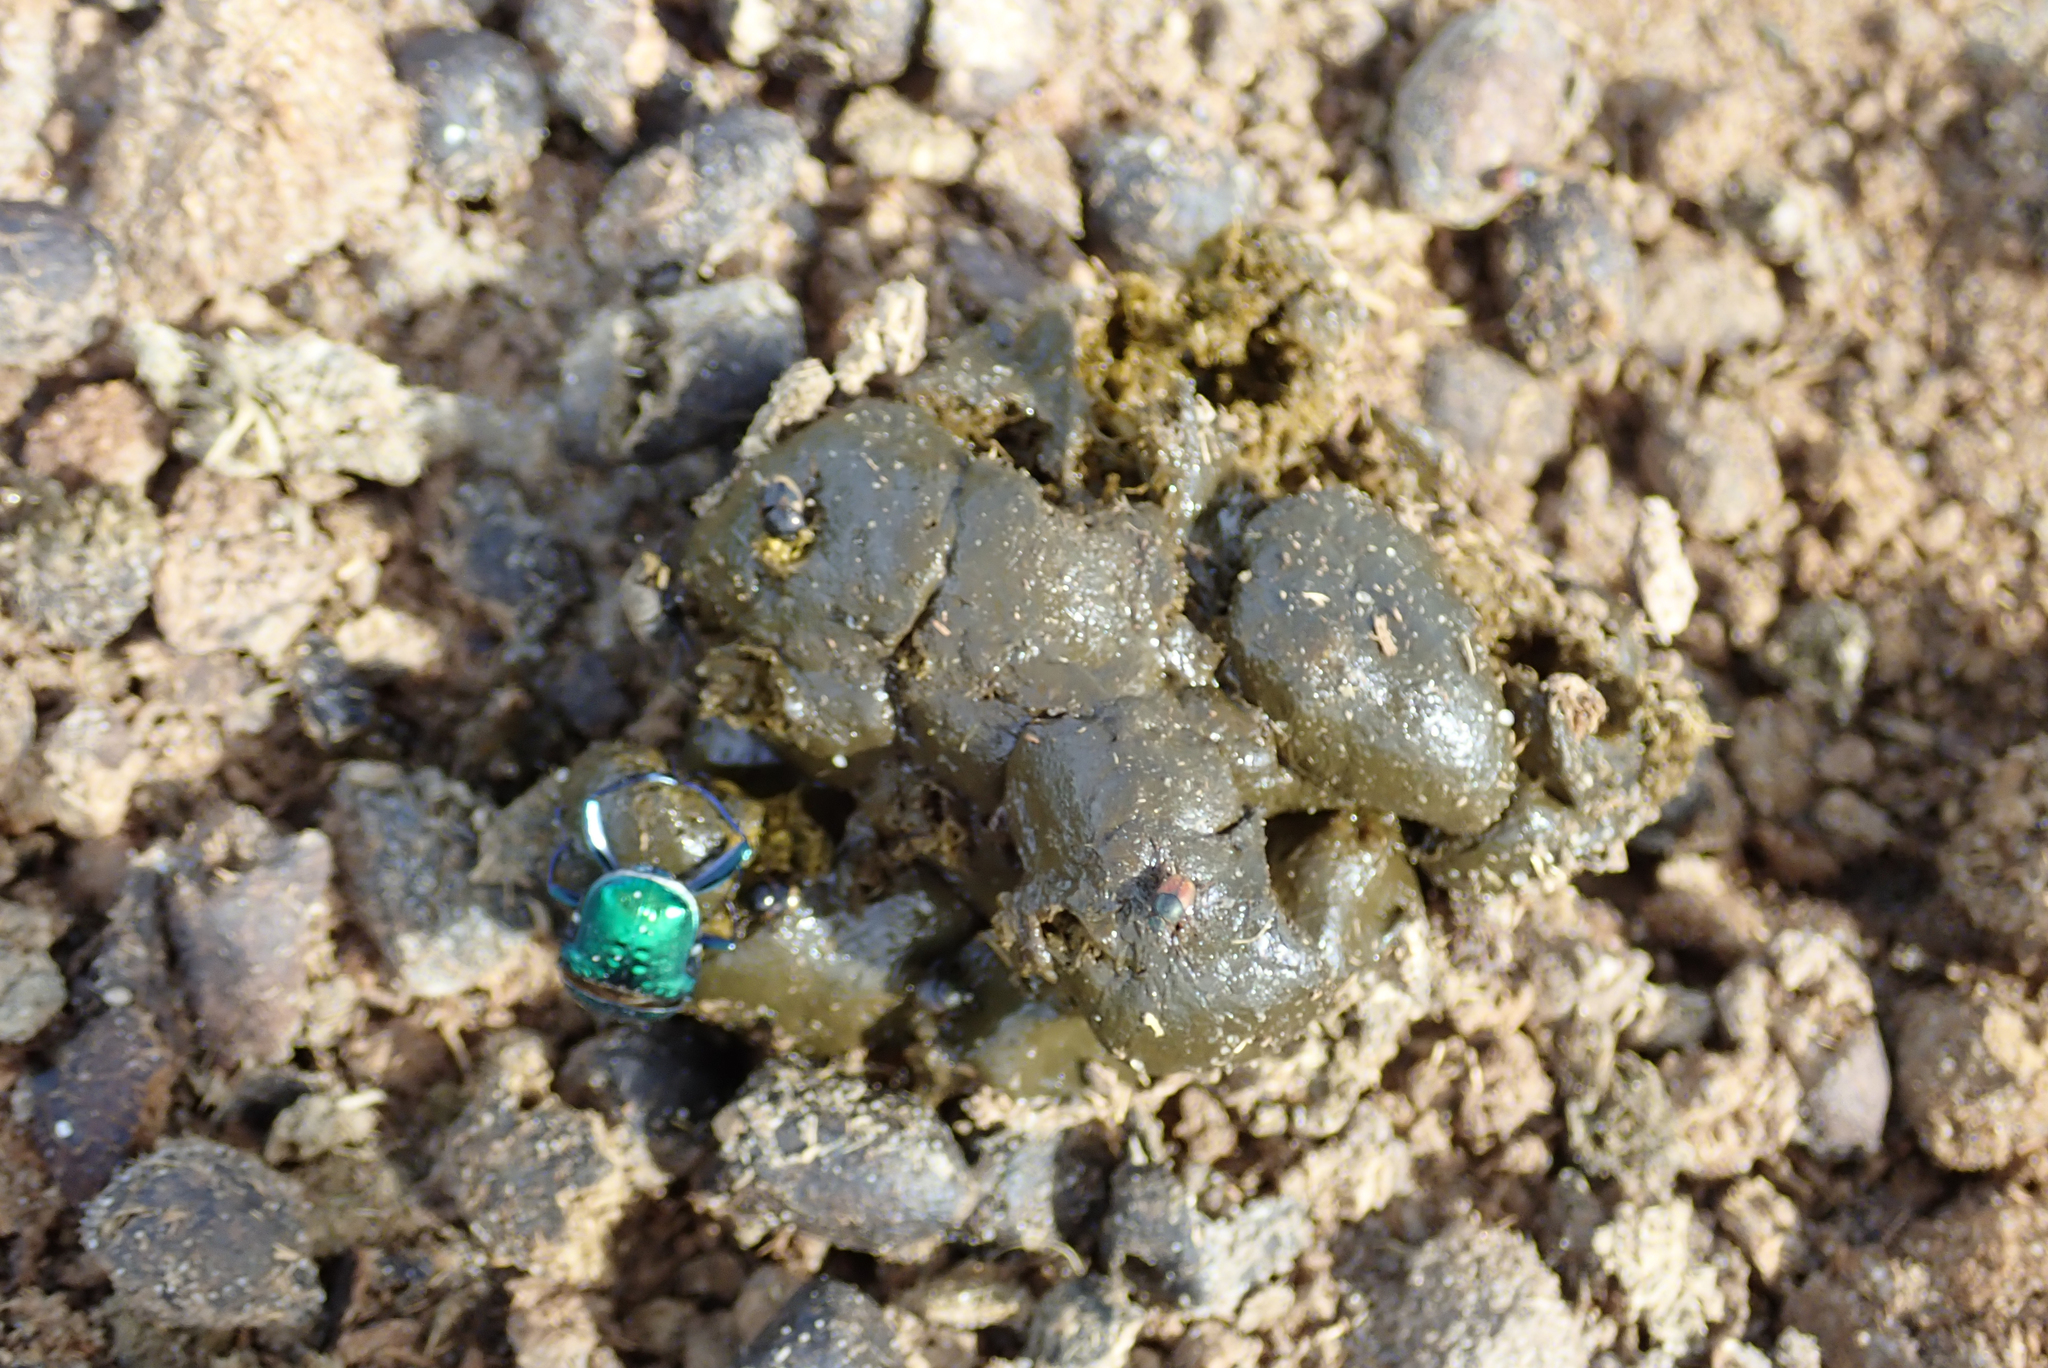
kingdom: Animalia
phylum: Chordata
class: Mammalia
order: Perissodactyla
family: Equidae
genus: Equus
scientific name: Equus quagga
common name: Plains zebra
